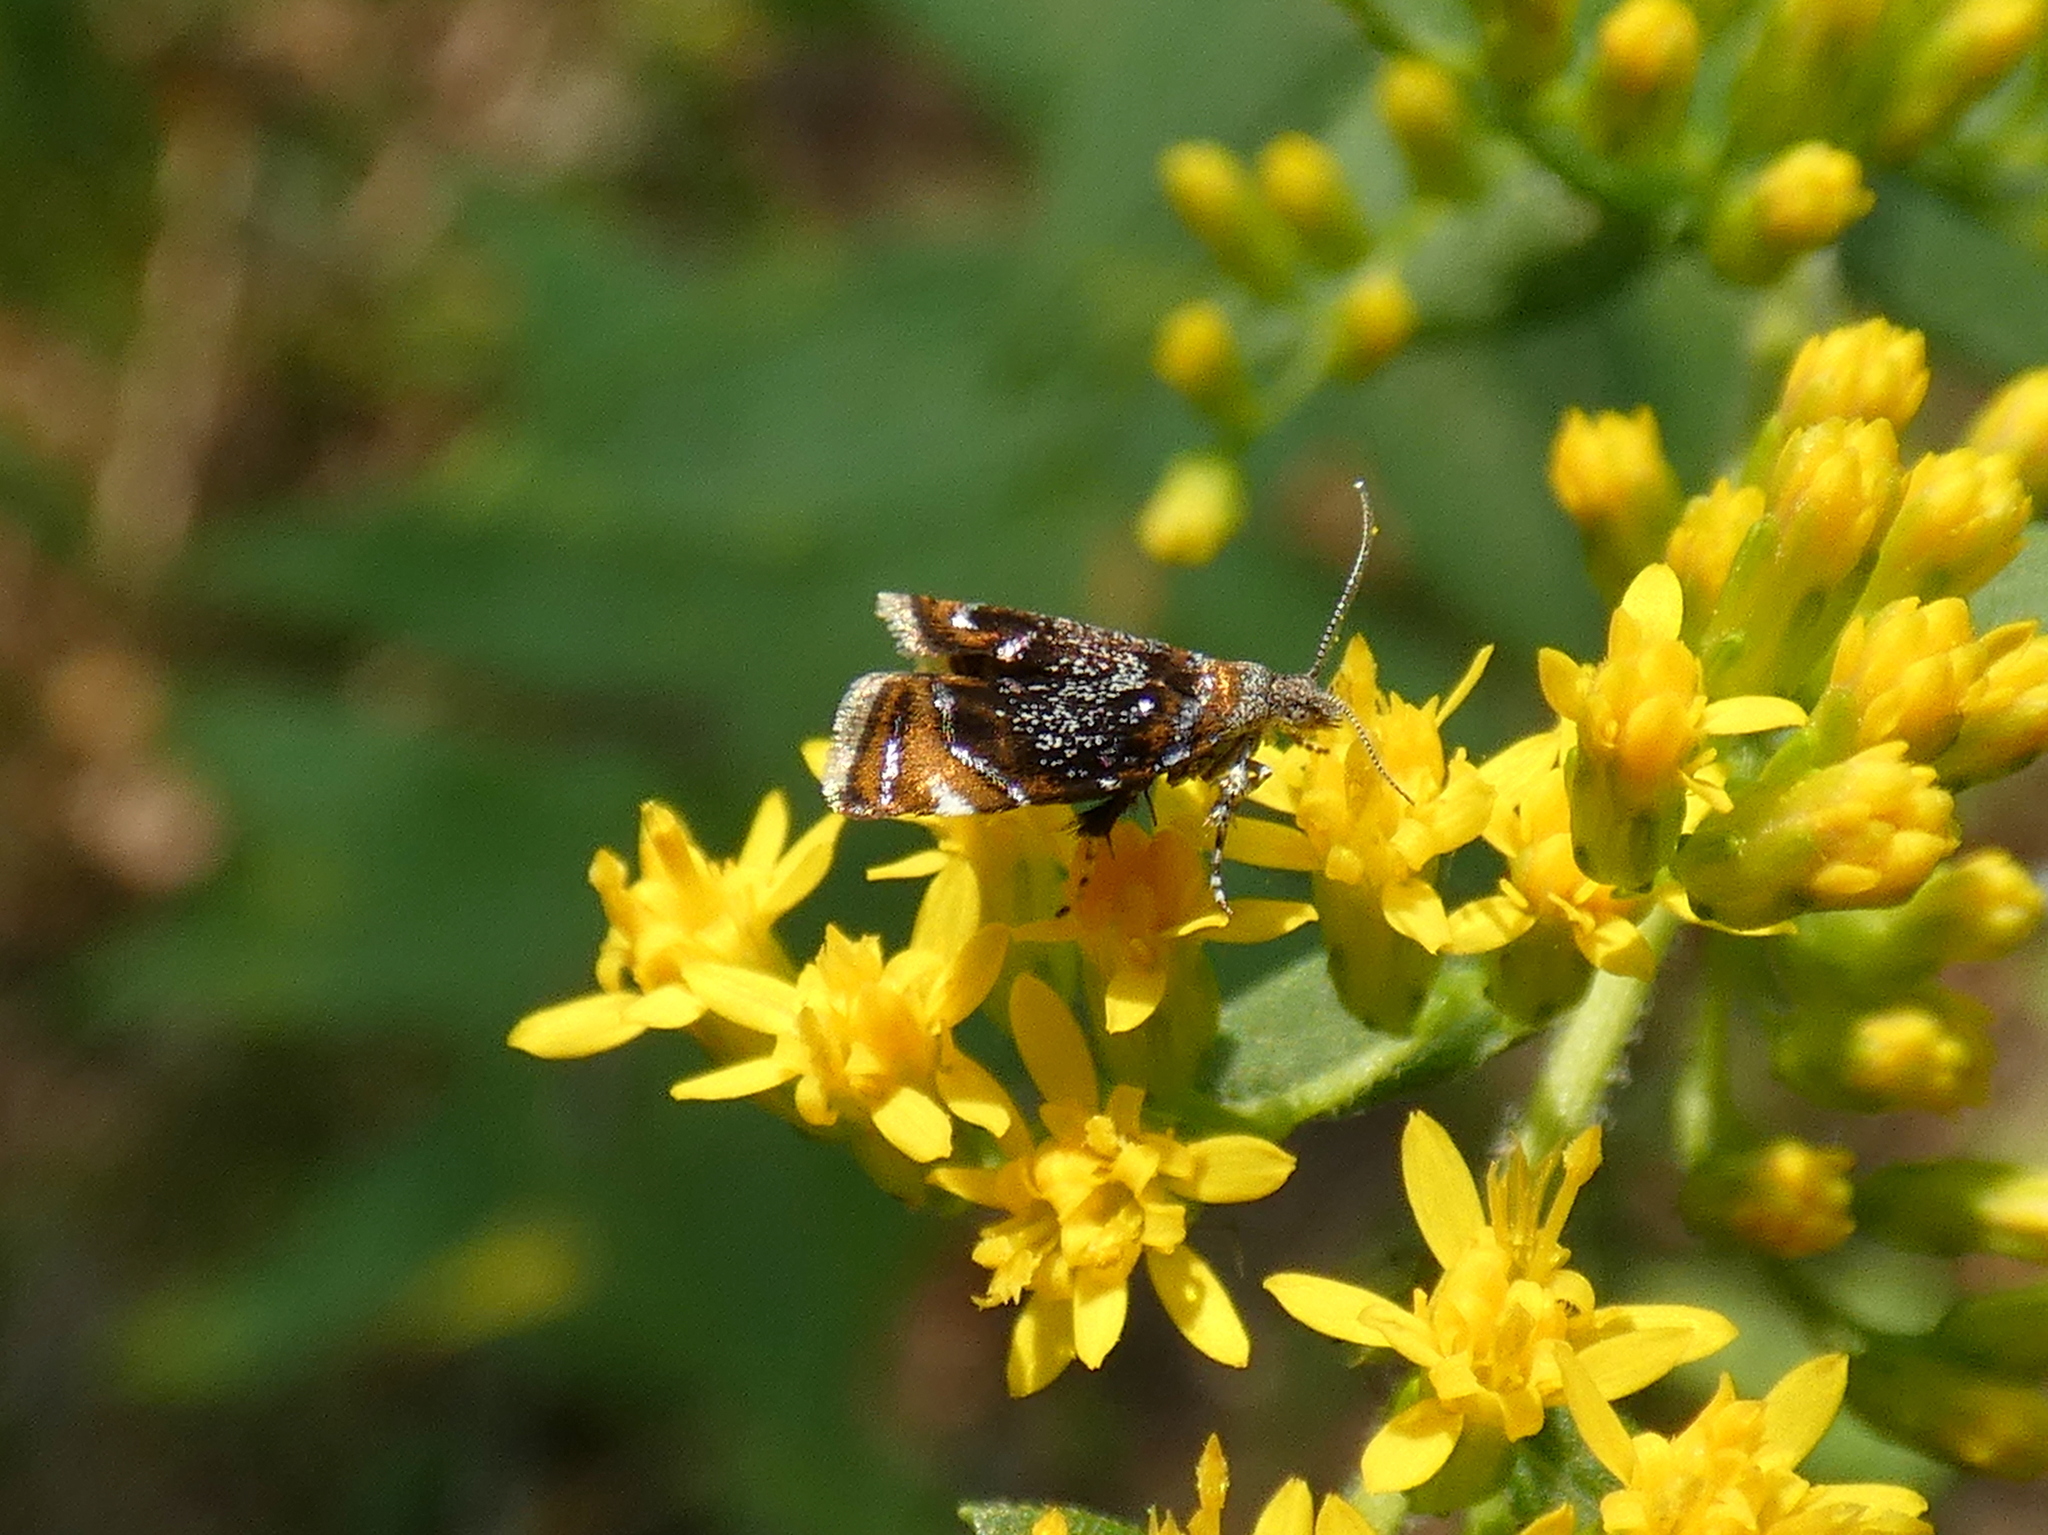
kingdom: Animalia
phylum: Arthropoda
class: Insecta
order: Lepidoptera
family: Choreutidae
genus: Prochoreutis
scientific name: Prochoreutis inflatella
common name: Skullcap skeletonizer moth
